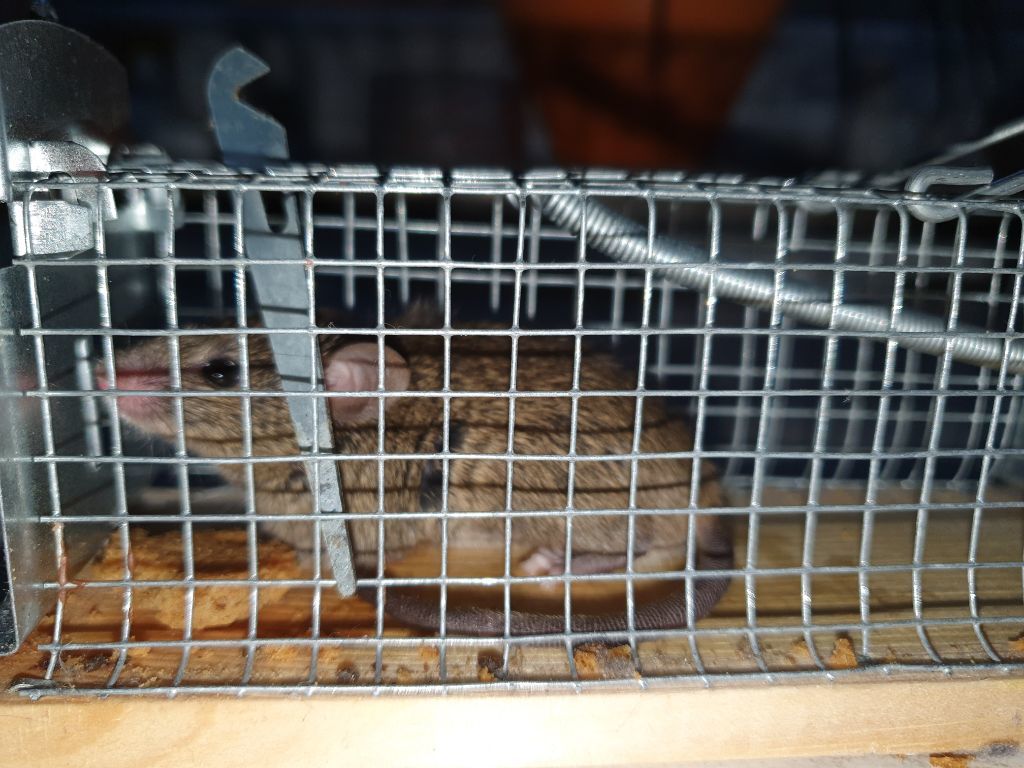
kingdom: Animalia
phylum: Chordata
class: Mammalia
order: Rodentia
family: Muridae
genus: Rattus
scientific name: Rattus norvegicus
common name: Brown rat
